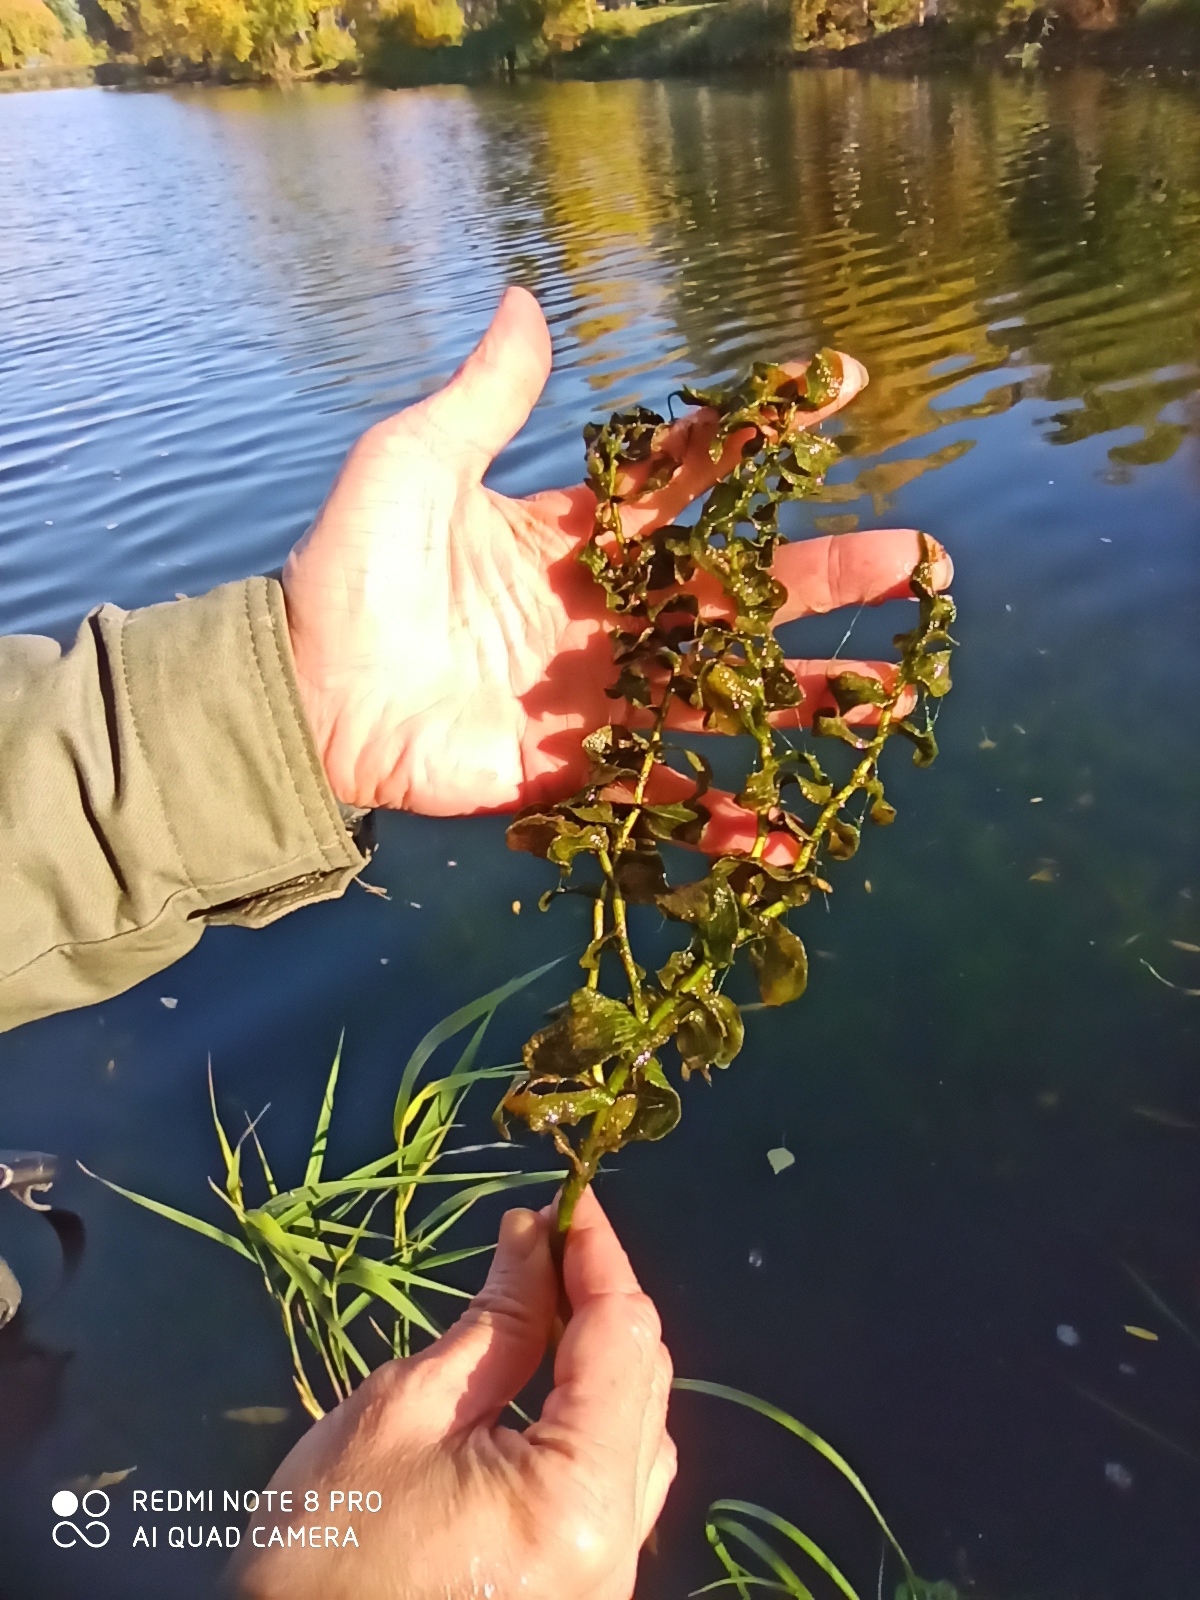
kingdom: Plantae
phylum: Tracheophyta
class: Liliopsida
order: Alismatales
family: Potamogetonaceae
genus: Potamogeton
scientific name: Potamogeton perfoliatus
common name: Perfoliate pondweed
